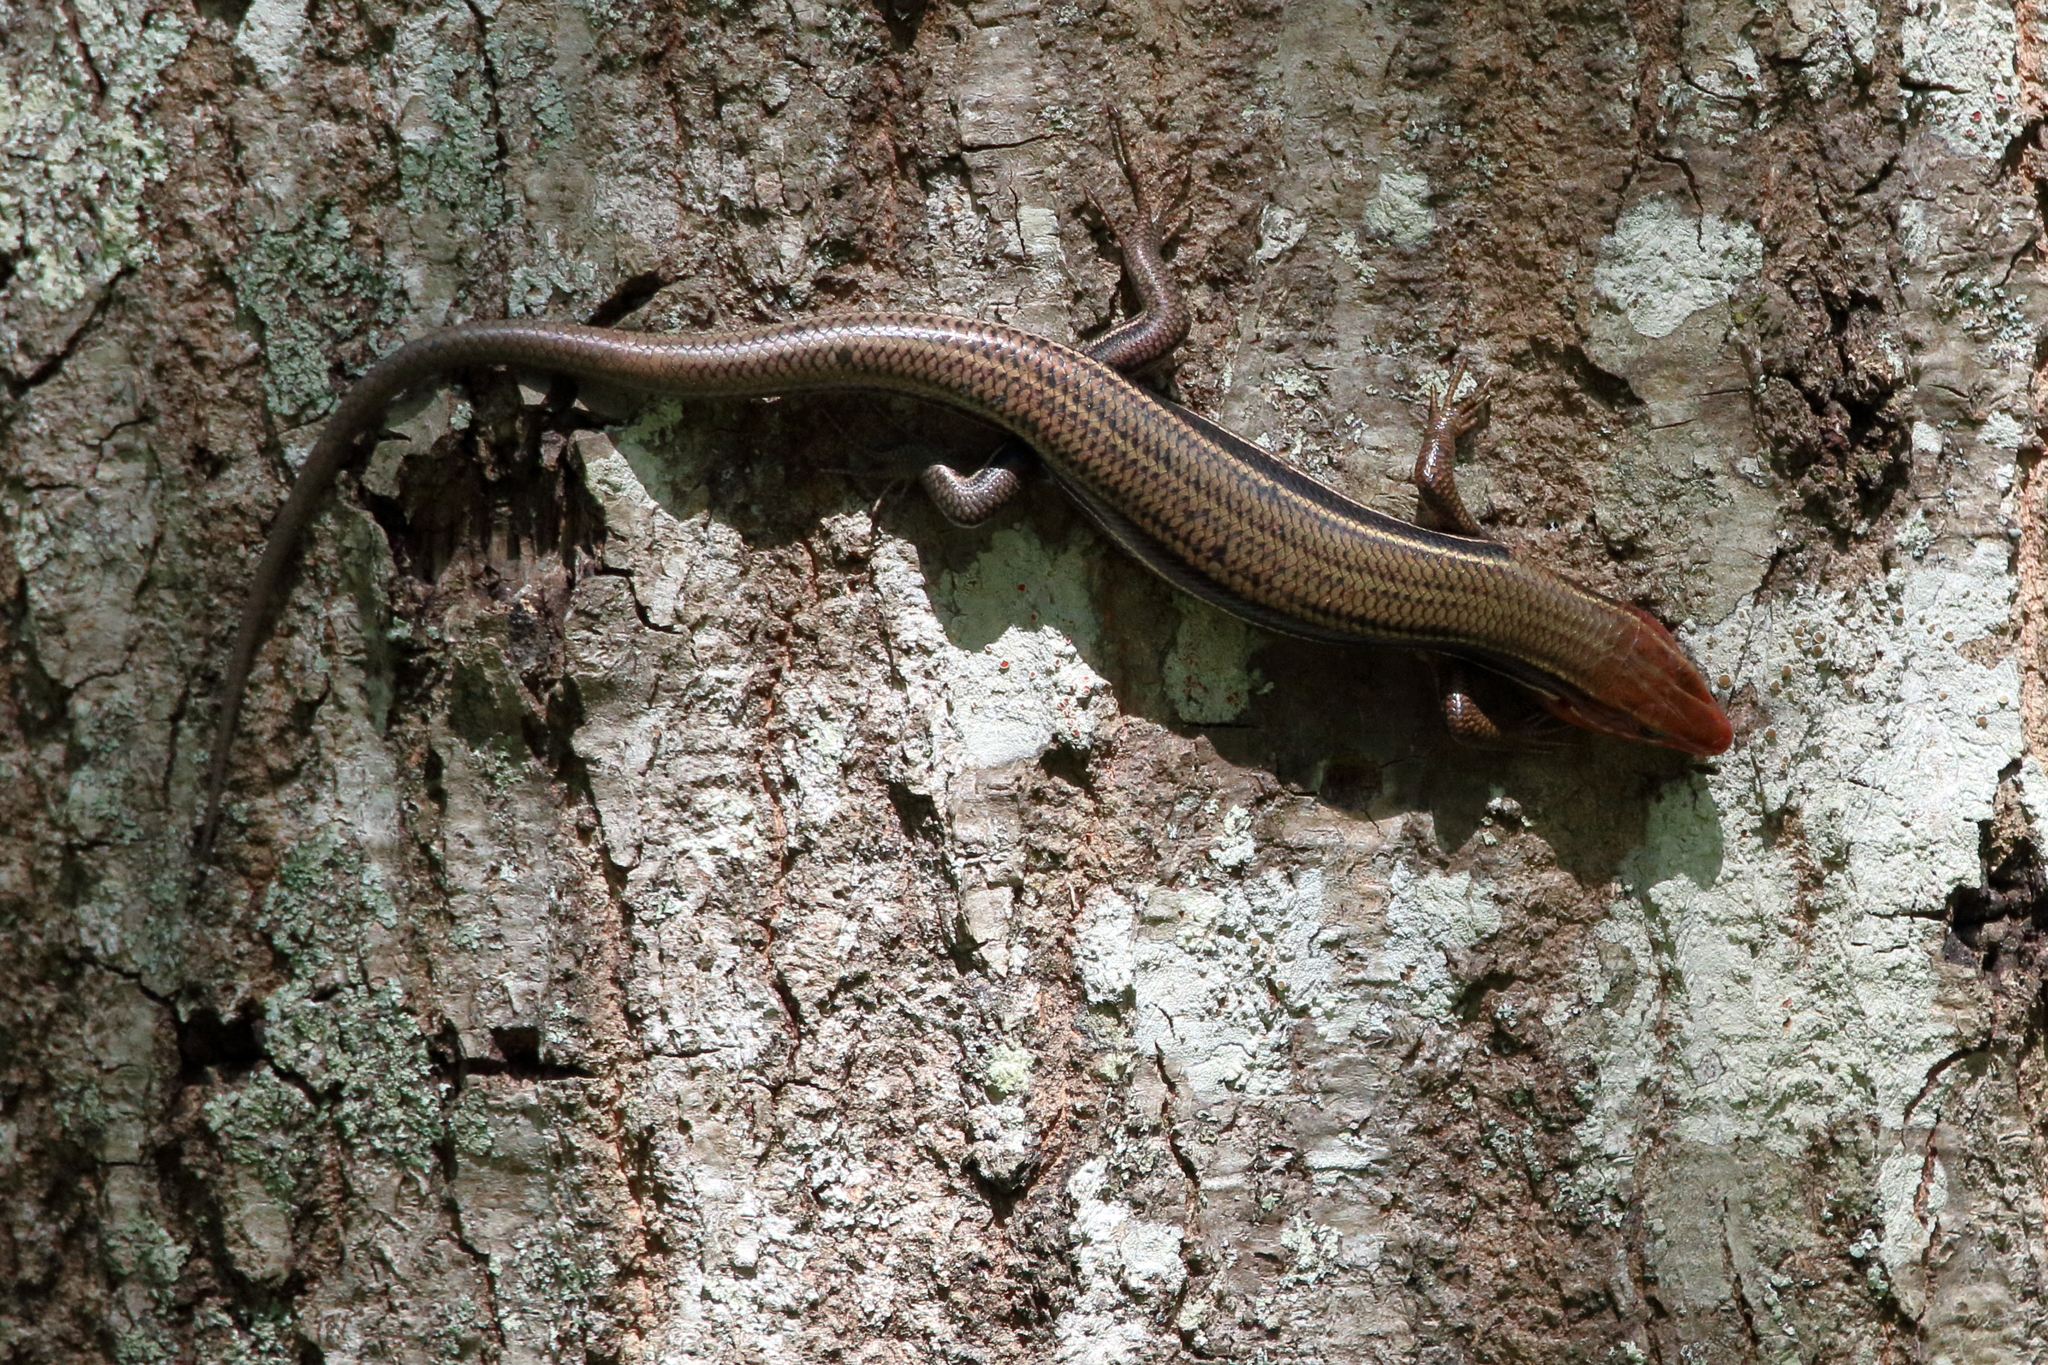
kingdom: Animalia
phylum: Chordata
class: Squamata
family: Scincidae
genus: Plestiodon
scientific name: Plestiodon inexpectatus
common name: Southeastern five-lined skink
